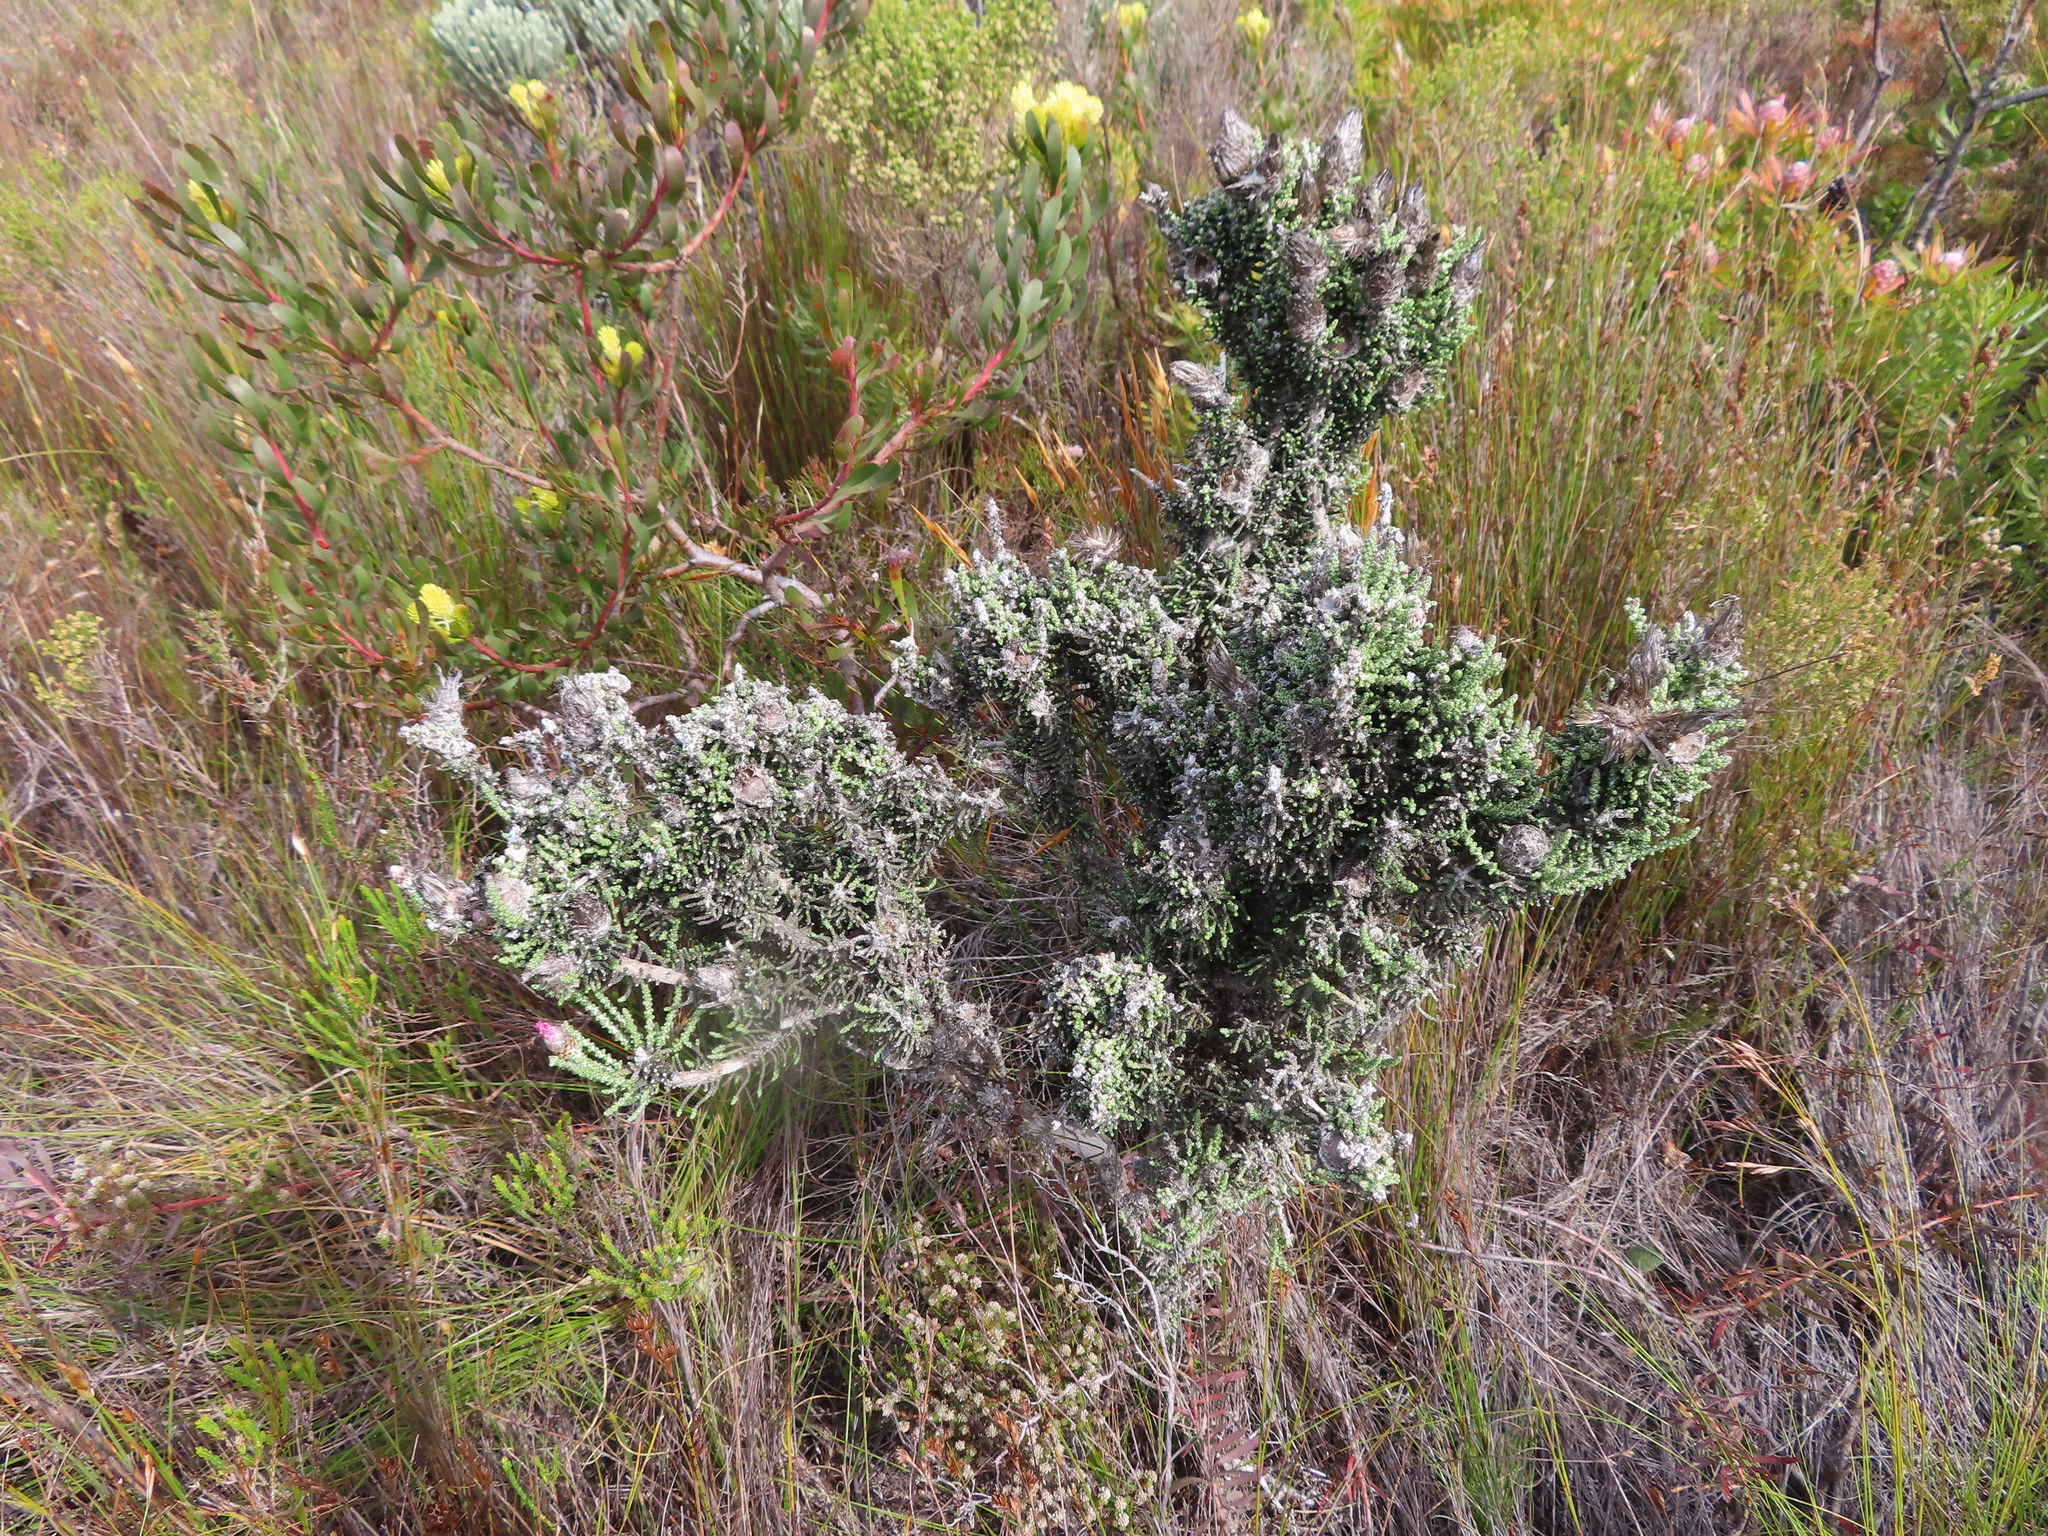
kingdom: Plantae
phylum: Tracheophyta
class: Magnoliopsida
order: Asterales
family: Asteraceae
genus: Phaenocoma
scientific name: Phaenocoma prolifera
